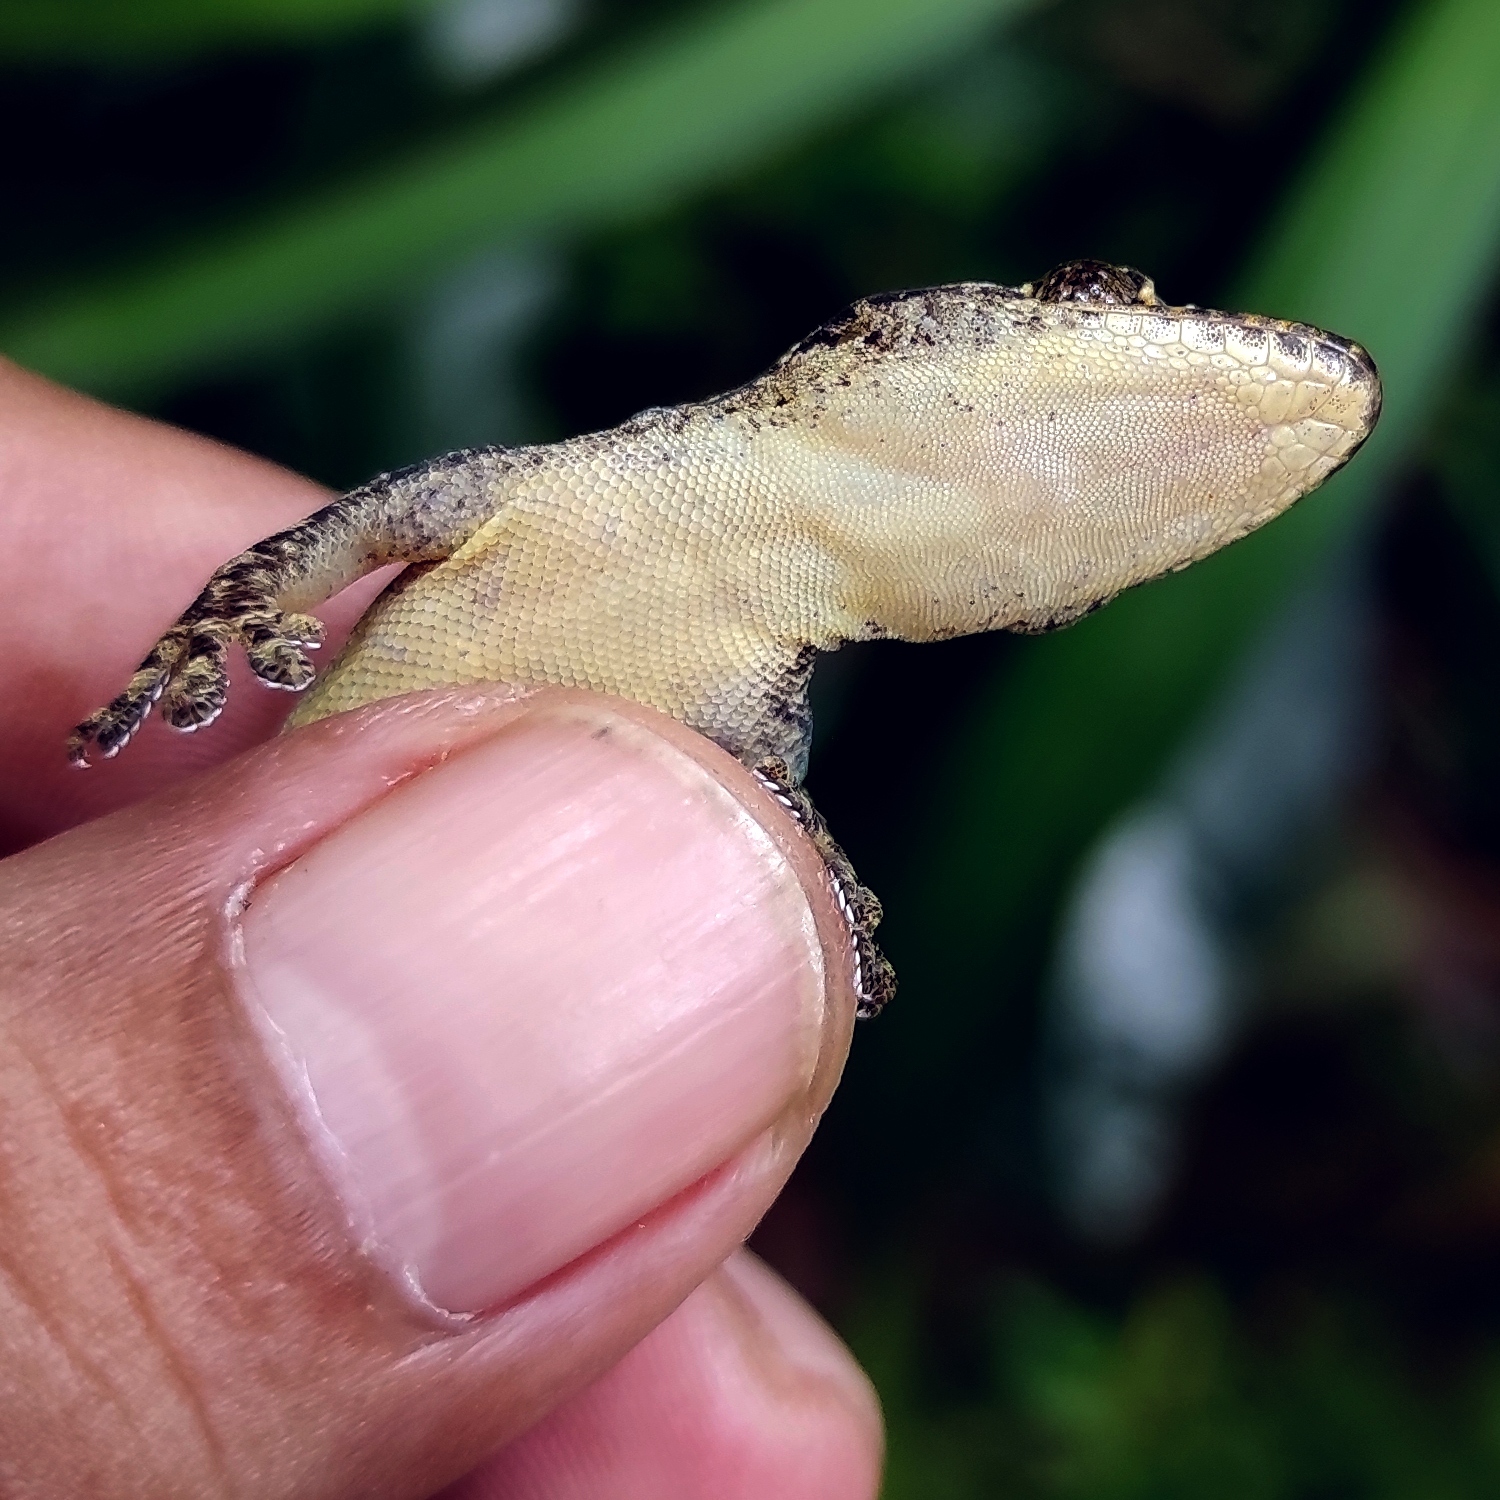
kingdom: Animalia
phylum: Chordata
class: Squamata
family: Gekkonidae
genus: Hemidactylus
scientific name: Hemidactylus frenatus
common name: Common house gecko
